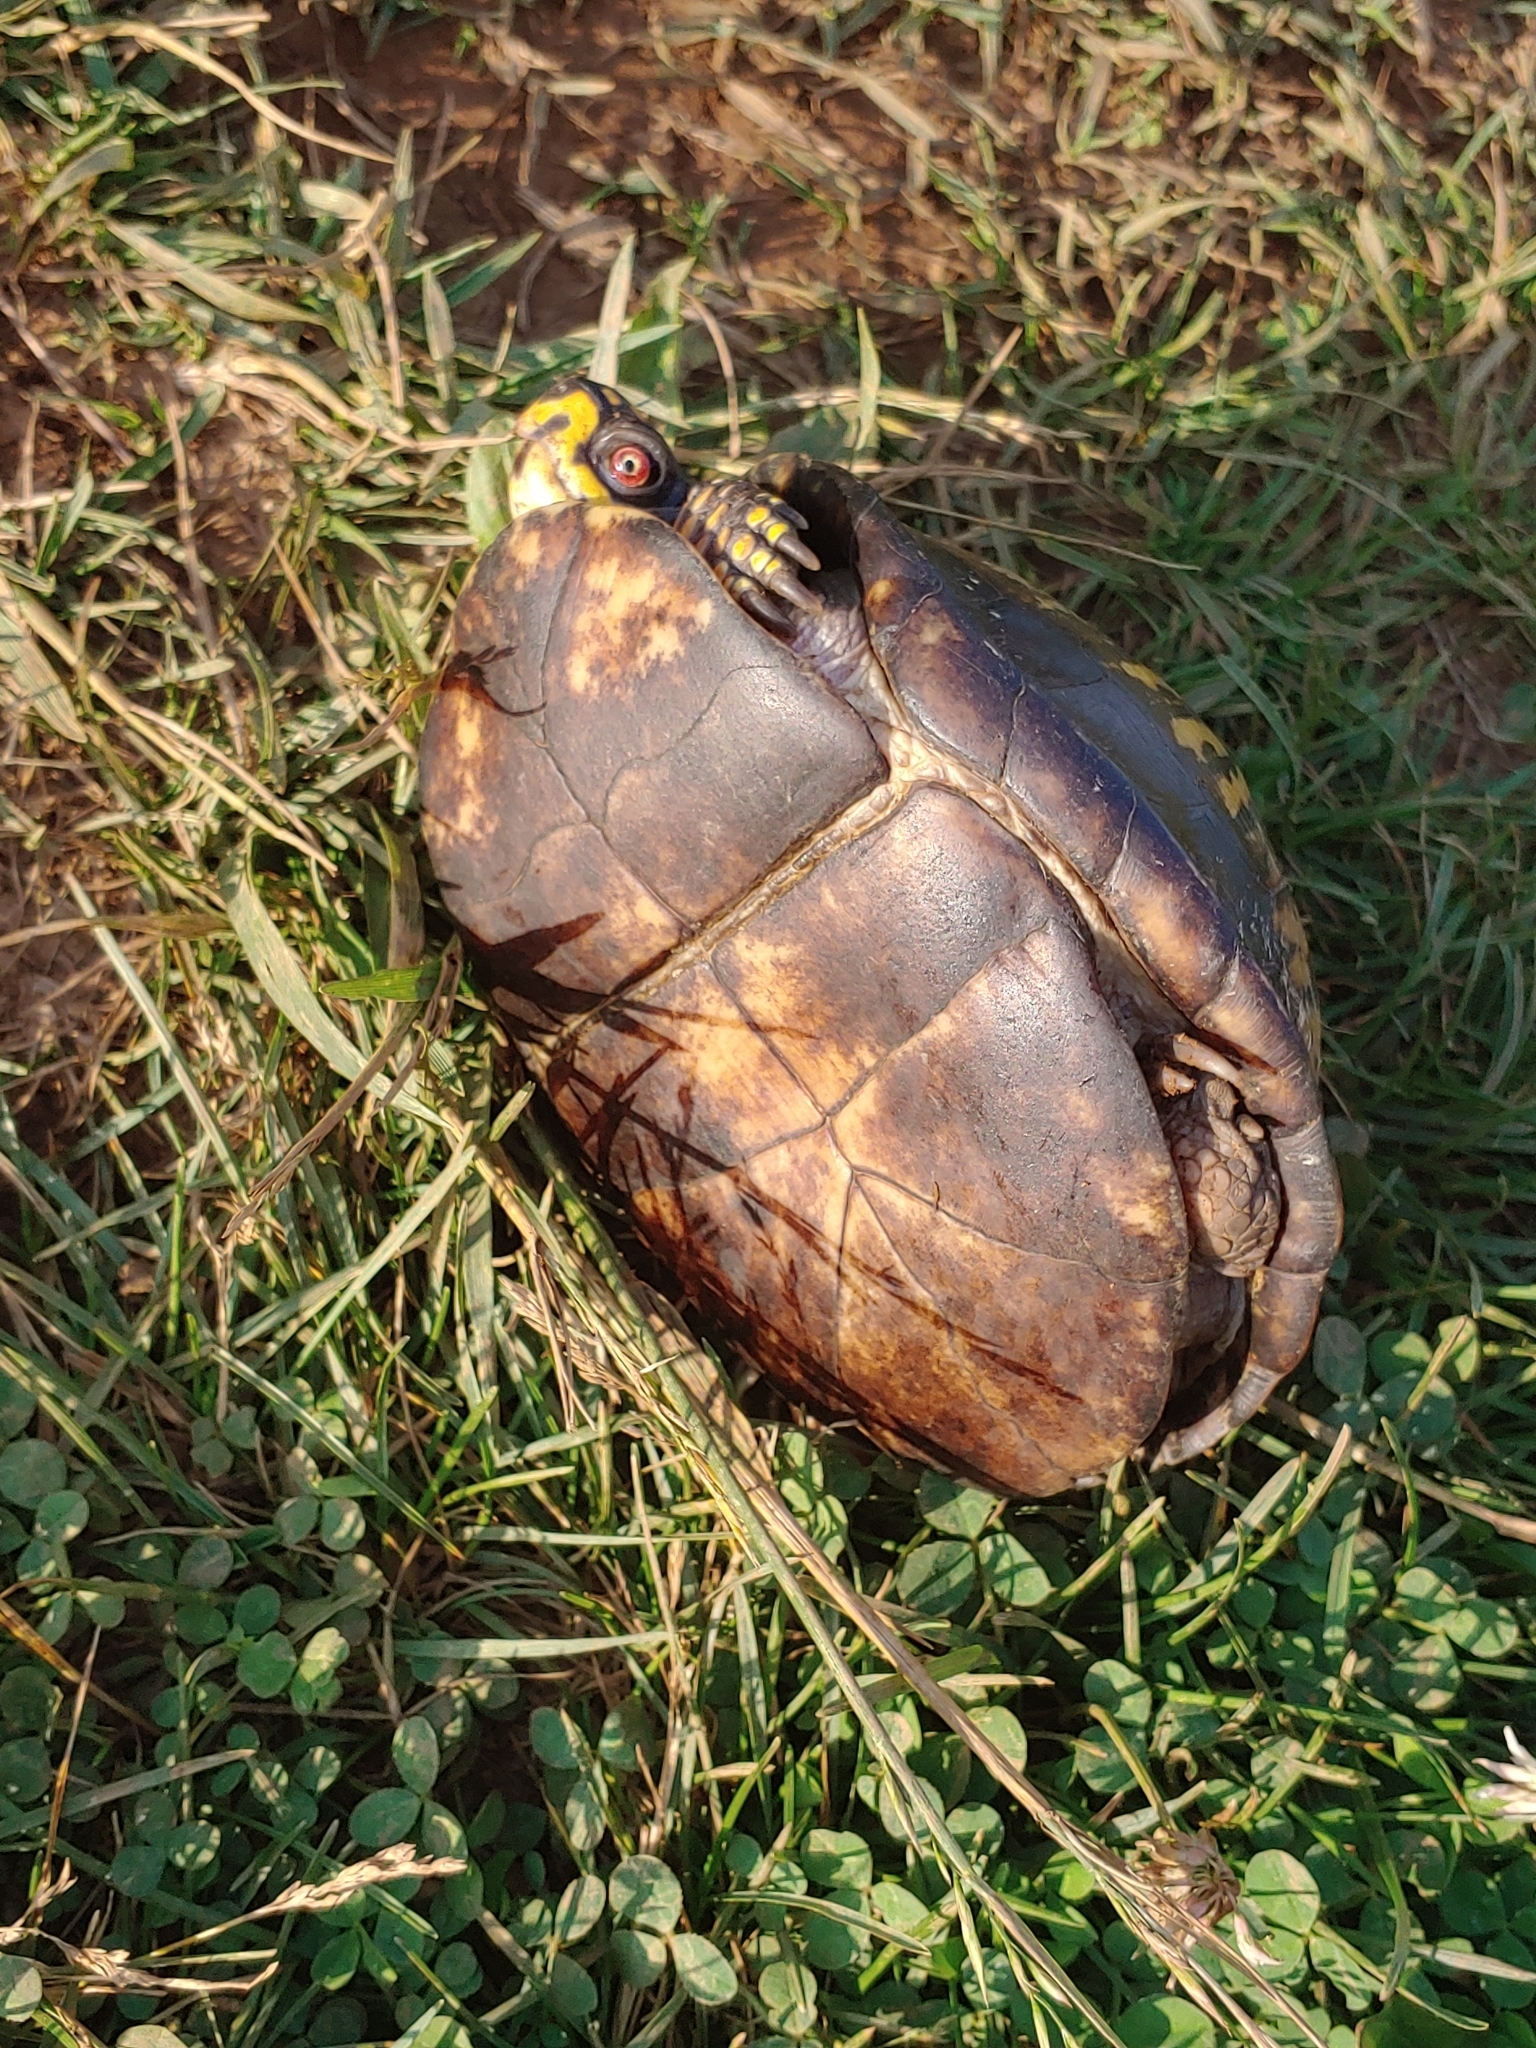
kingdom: Animalia
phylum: Chordata
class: Testudines
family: Emydidae
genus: Terrapene
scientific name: Terrapene carolina
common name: Common box turtle
